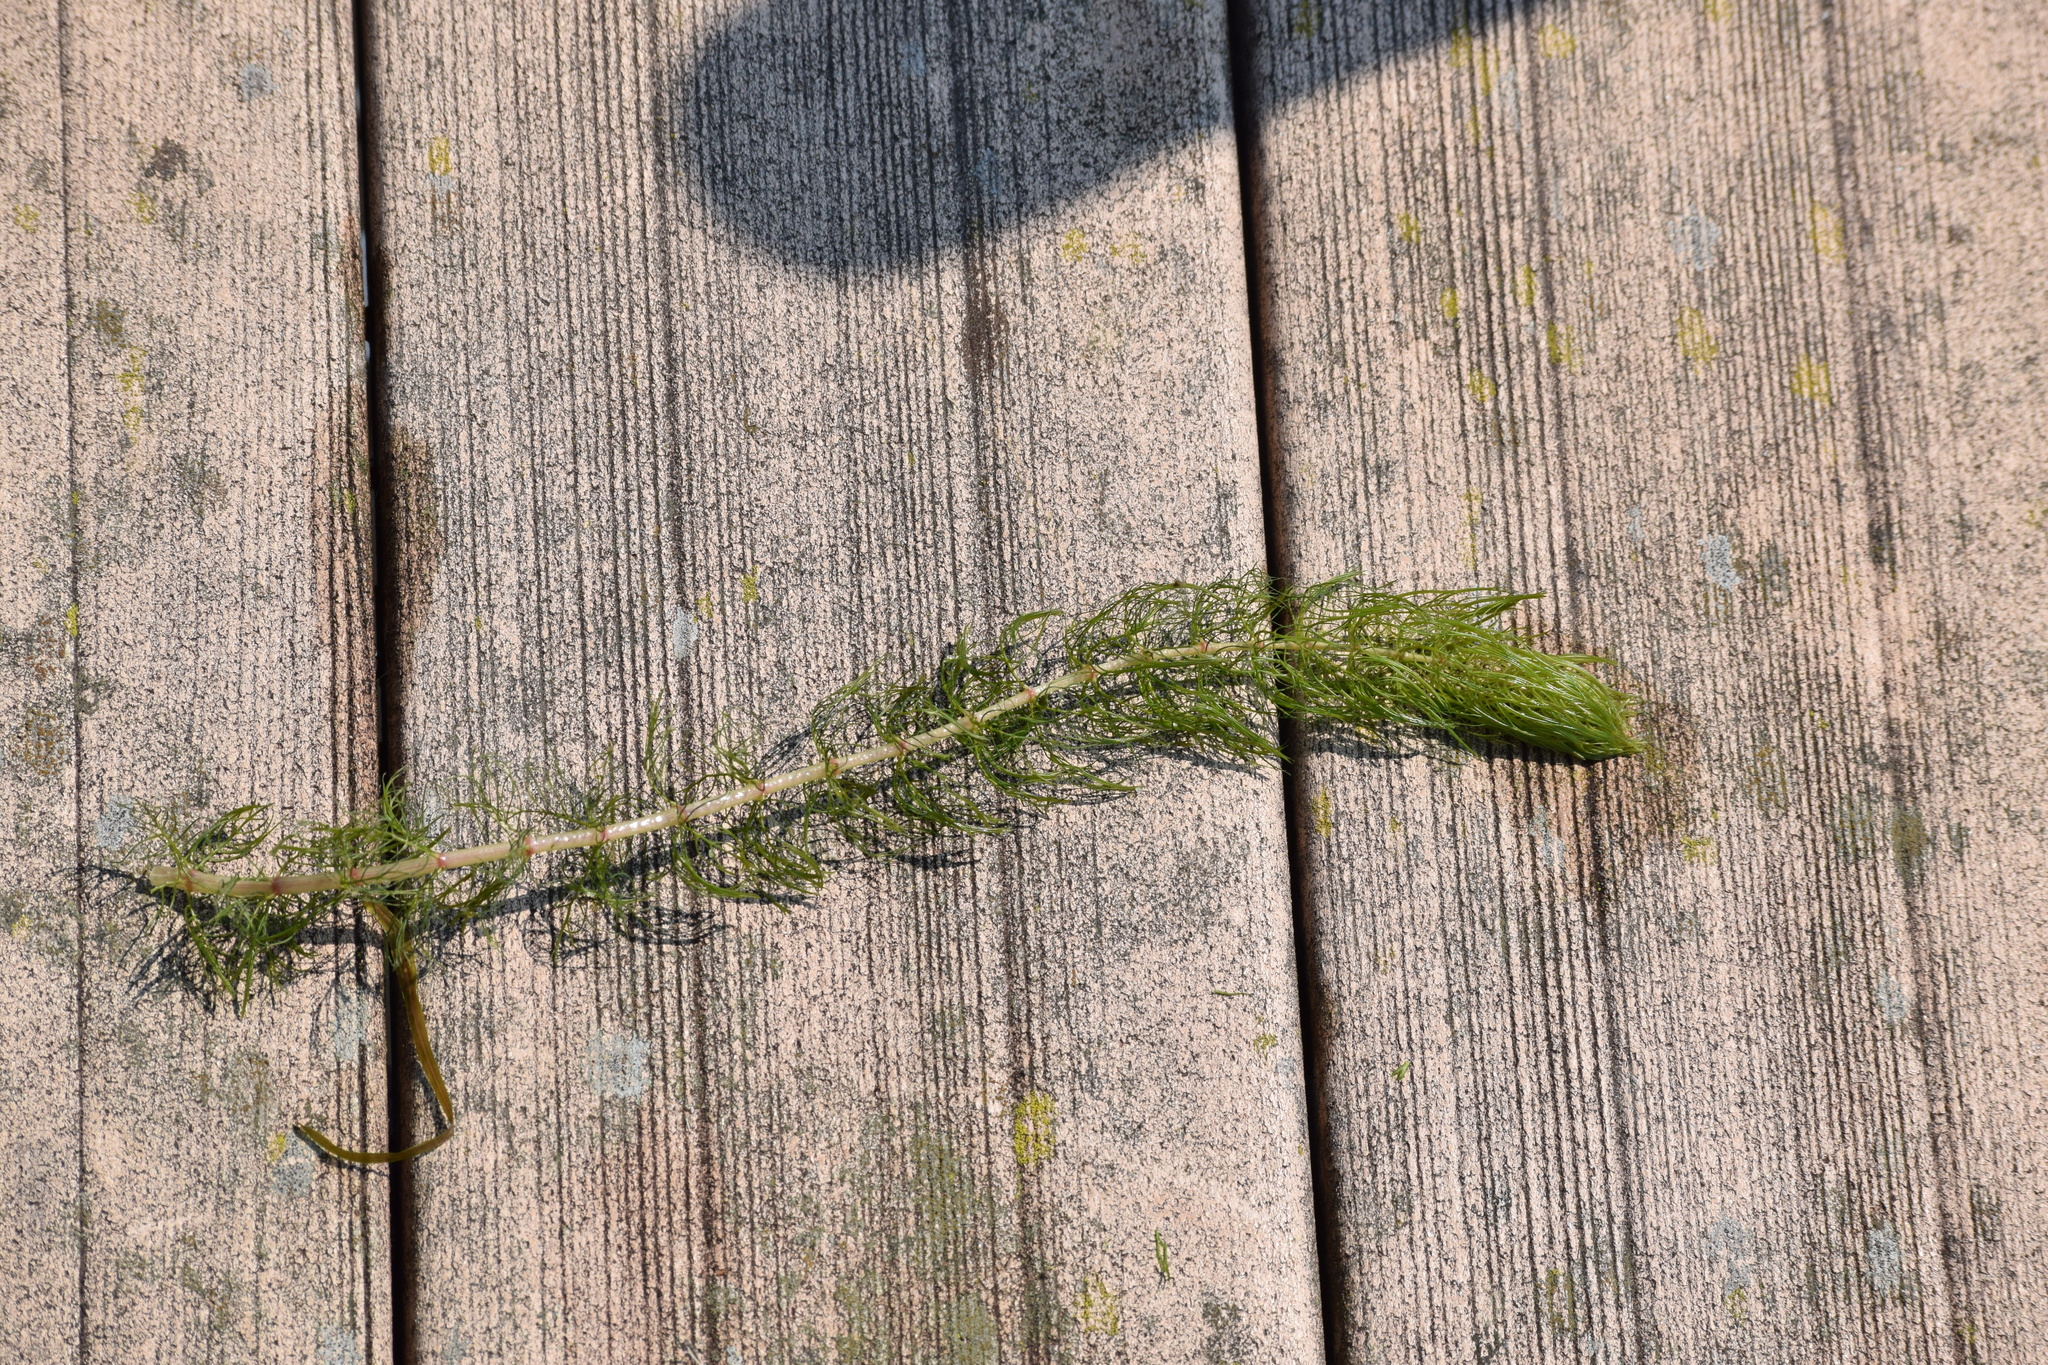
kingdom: Plantae
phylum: Tracheophyta
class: Magnoliopsida
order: Saxifragales
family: Haloragaceae
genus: Myriophyllum
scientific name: Myriophyllum sibiricum
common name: Siberian water-milfoil
